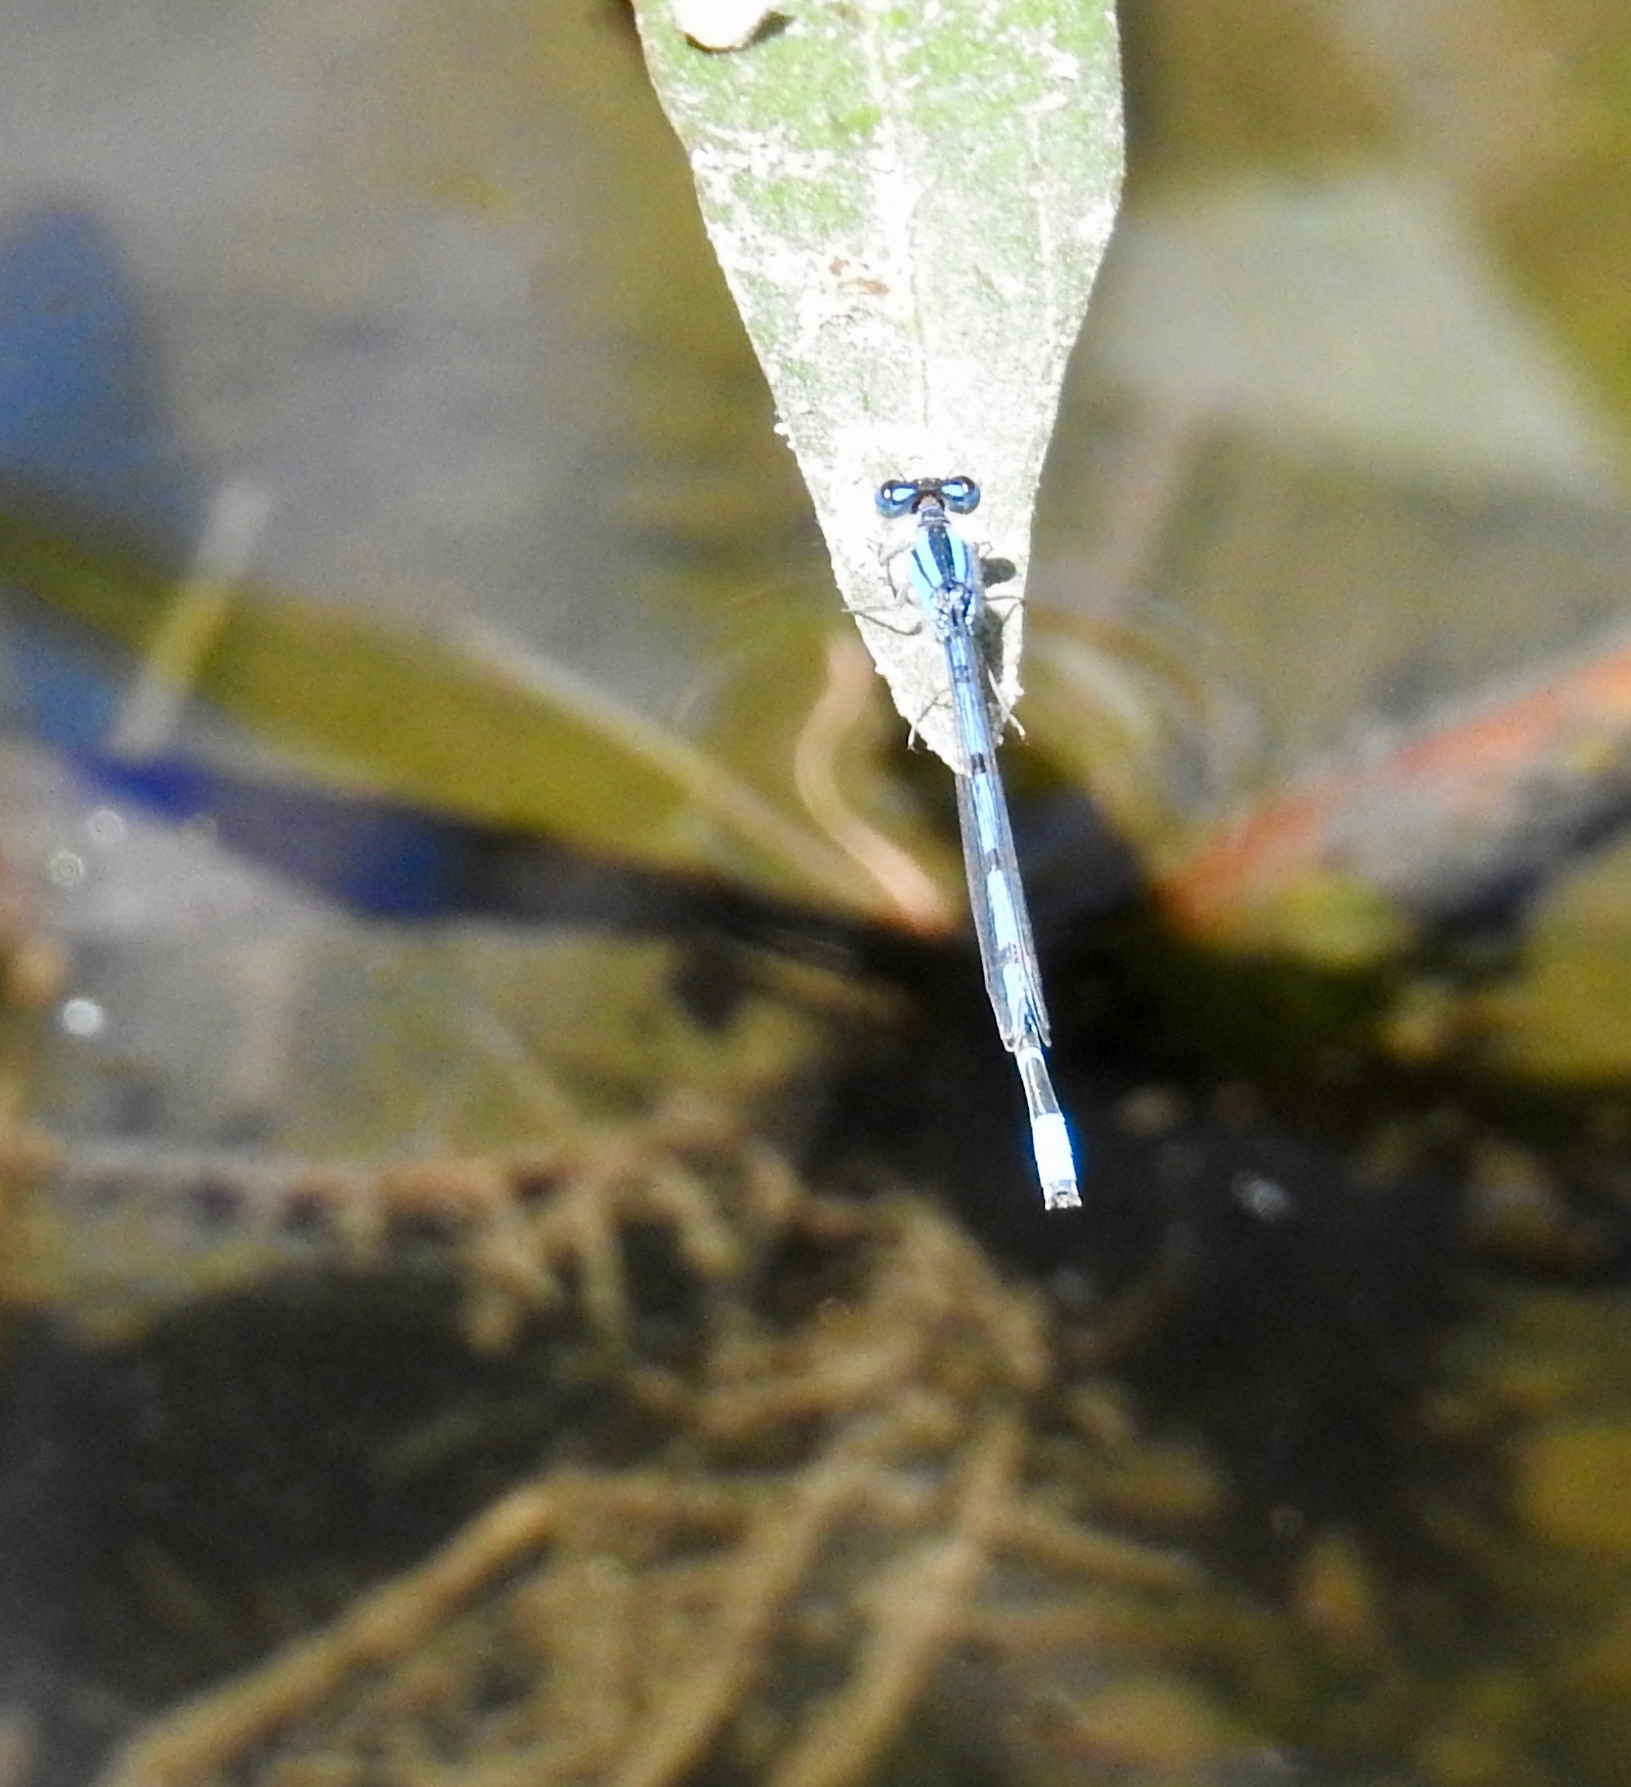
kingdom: Animalia
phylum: Arthropoda
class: Insecta
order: Odonata
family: Coenagrionidae
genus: Enallagma
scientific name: Enallagma civile
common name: Damselfly
